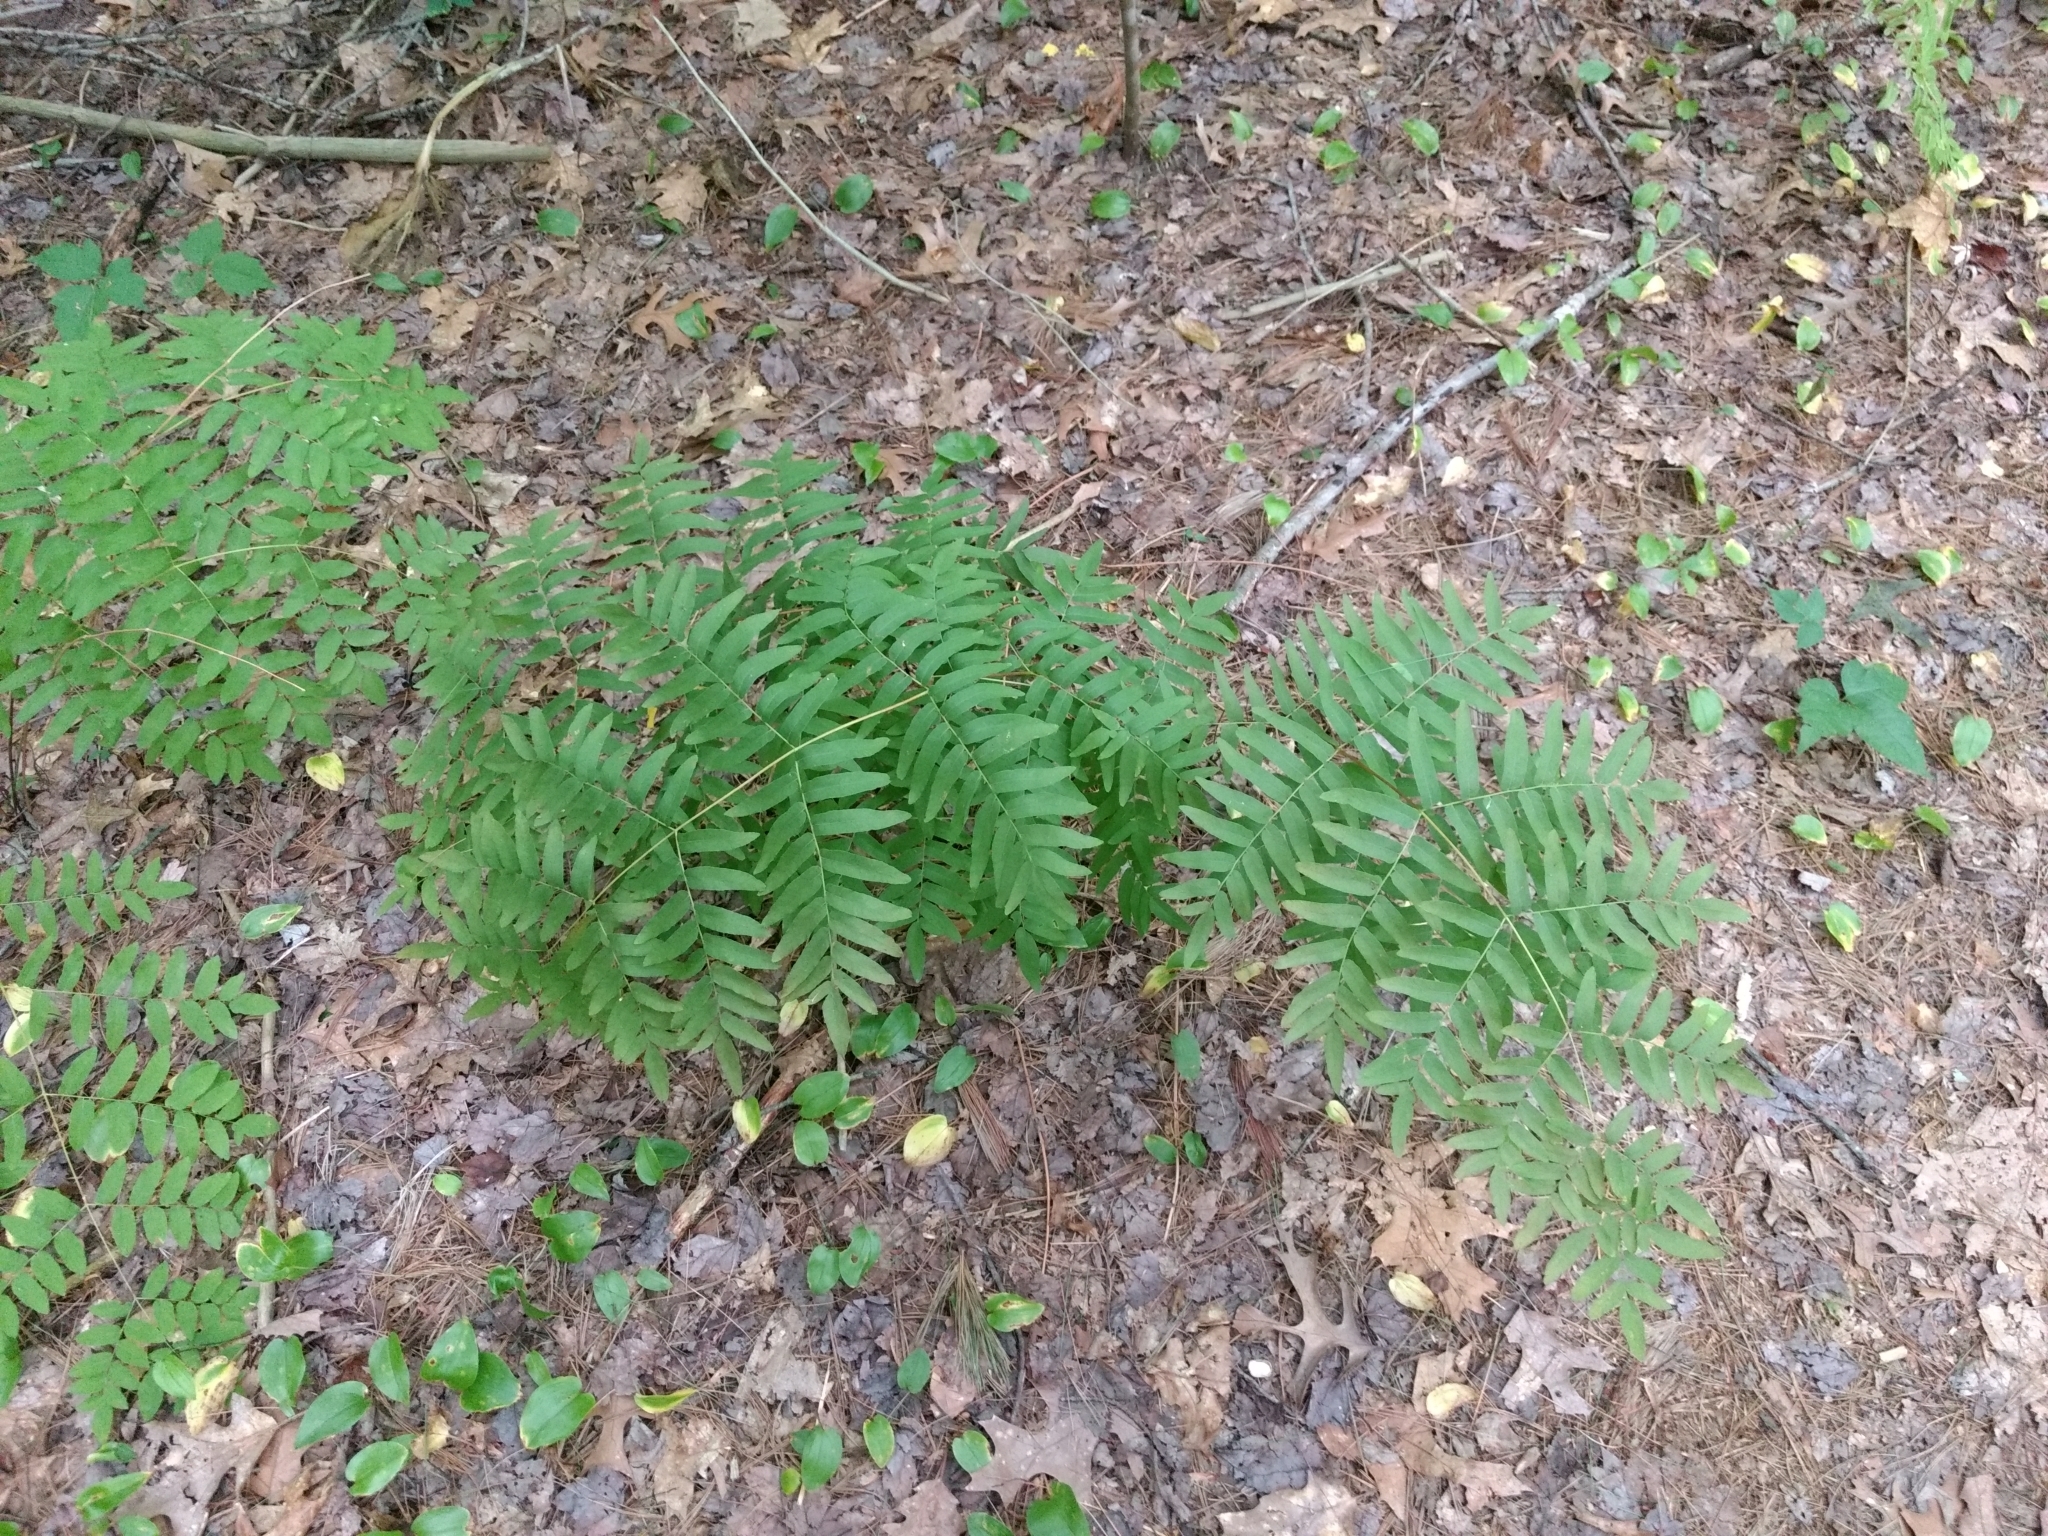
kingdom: Plantae
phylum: Tracheophyta
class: Polypodiopsida
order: Osmundales
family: Osmundaceae
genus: Osmunda
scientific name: Osmunda spectabilis
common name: American royal fern
